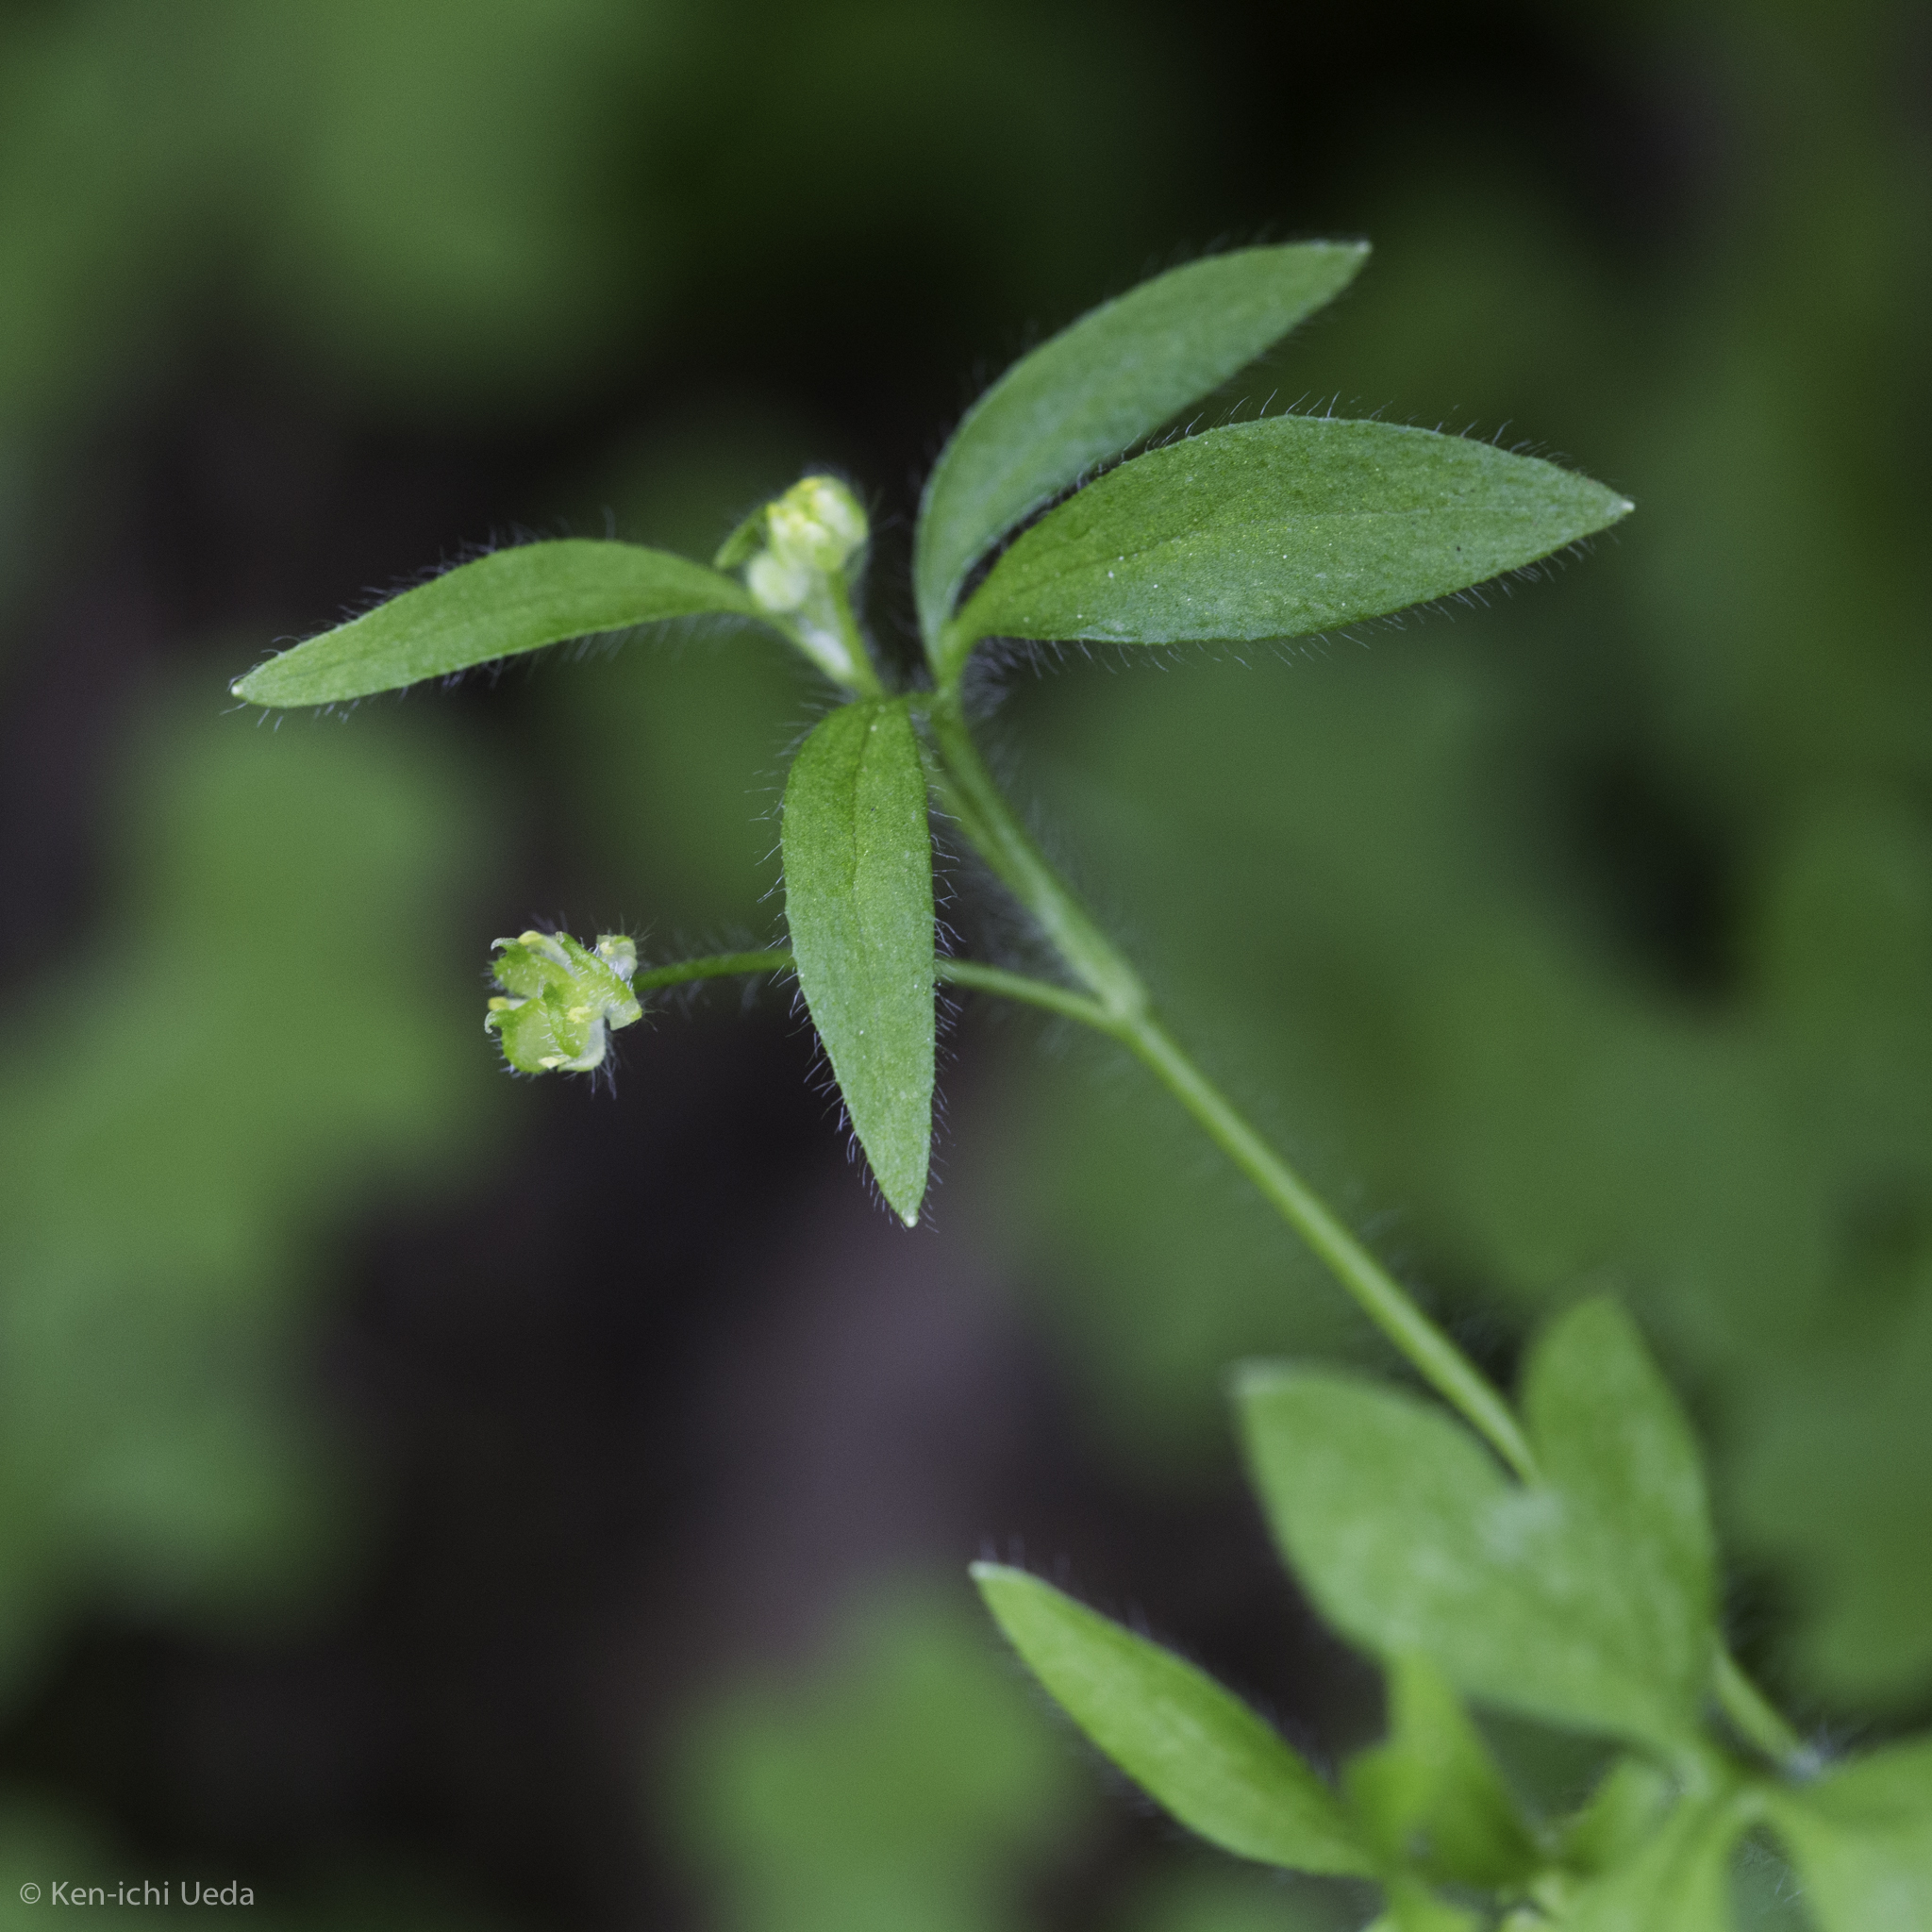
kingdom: Plantae
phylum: Tracheophyta
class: Magnoliopsida
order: Ranunculales
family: Ranunculaceae
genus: Ranunculus
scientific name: Ranunculus hebecarpus
